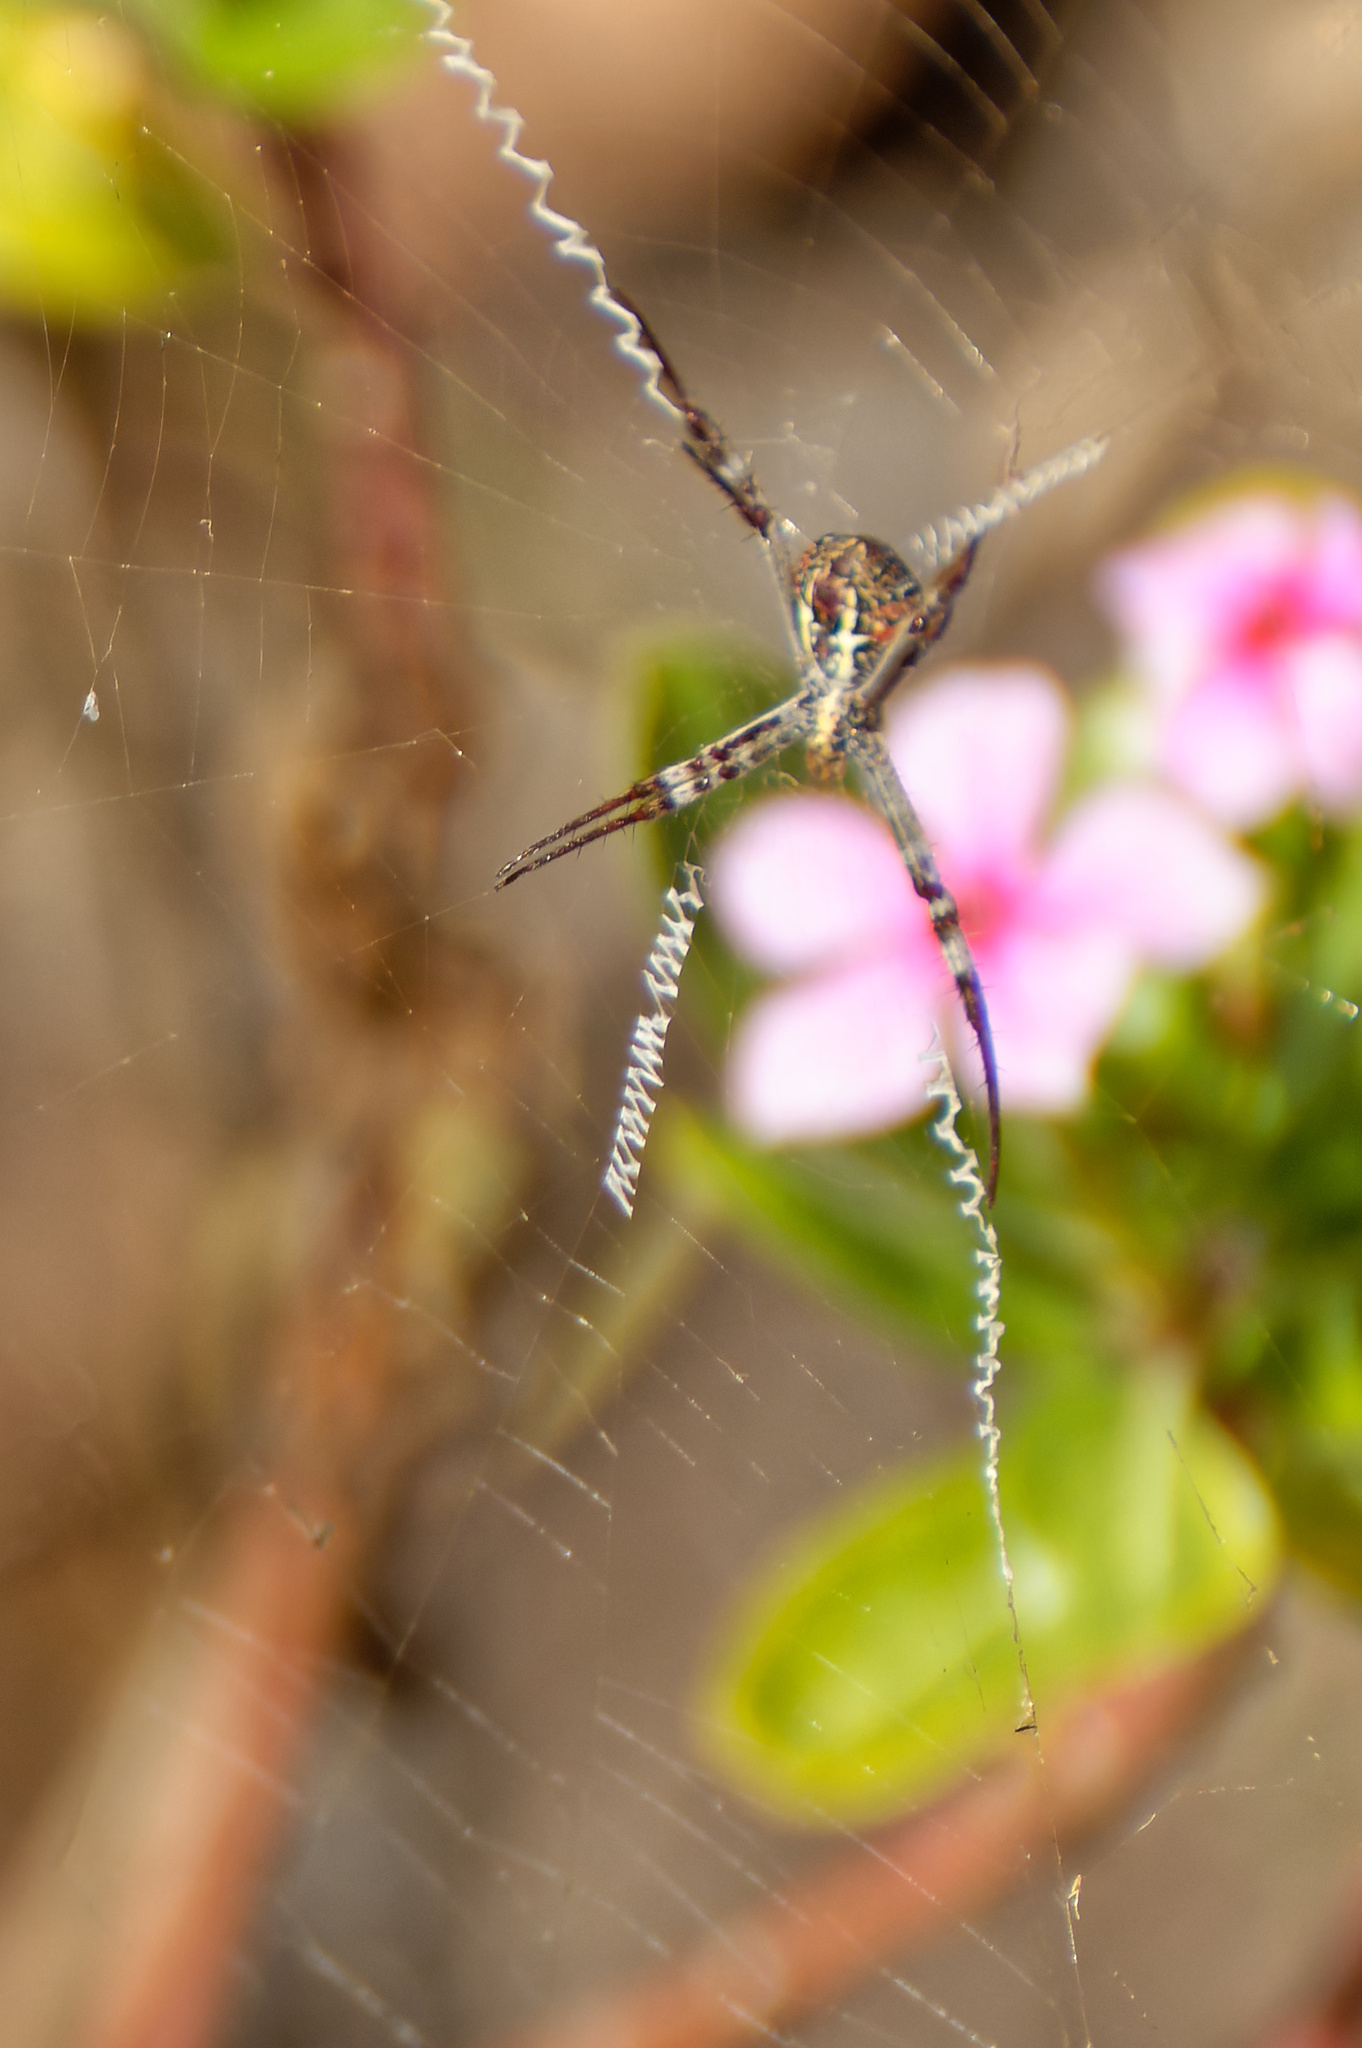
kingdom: Animalia
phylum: Arthropoda
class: Arachnida
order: Araneae
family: Araneidae
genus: Argiope
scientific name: Argiope aetherea
